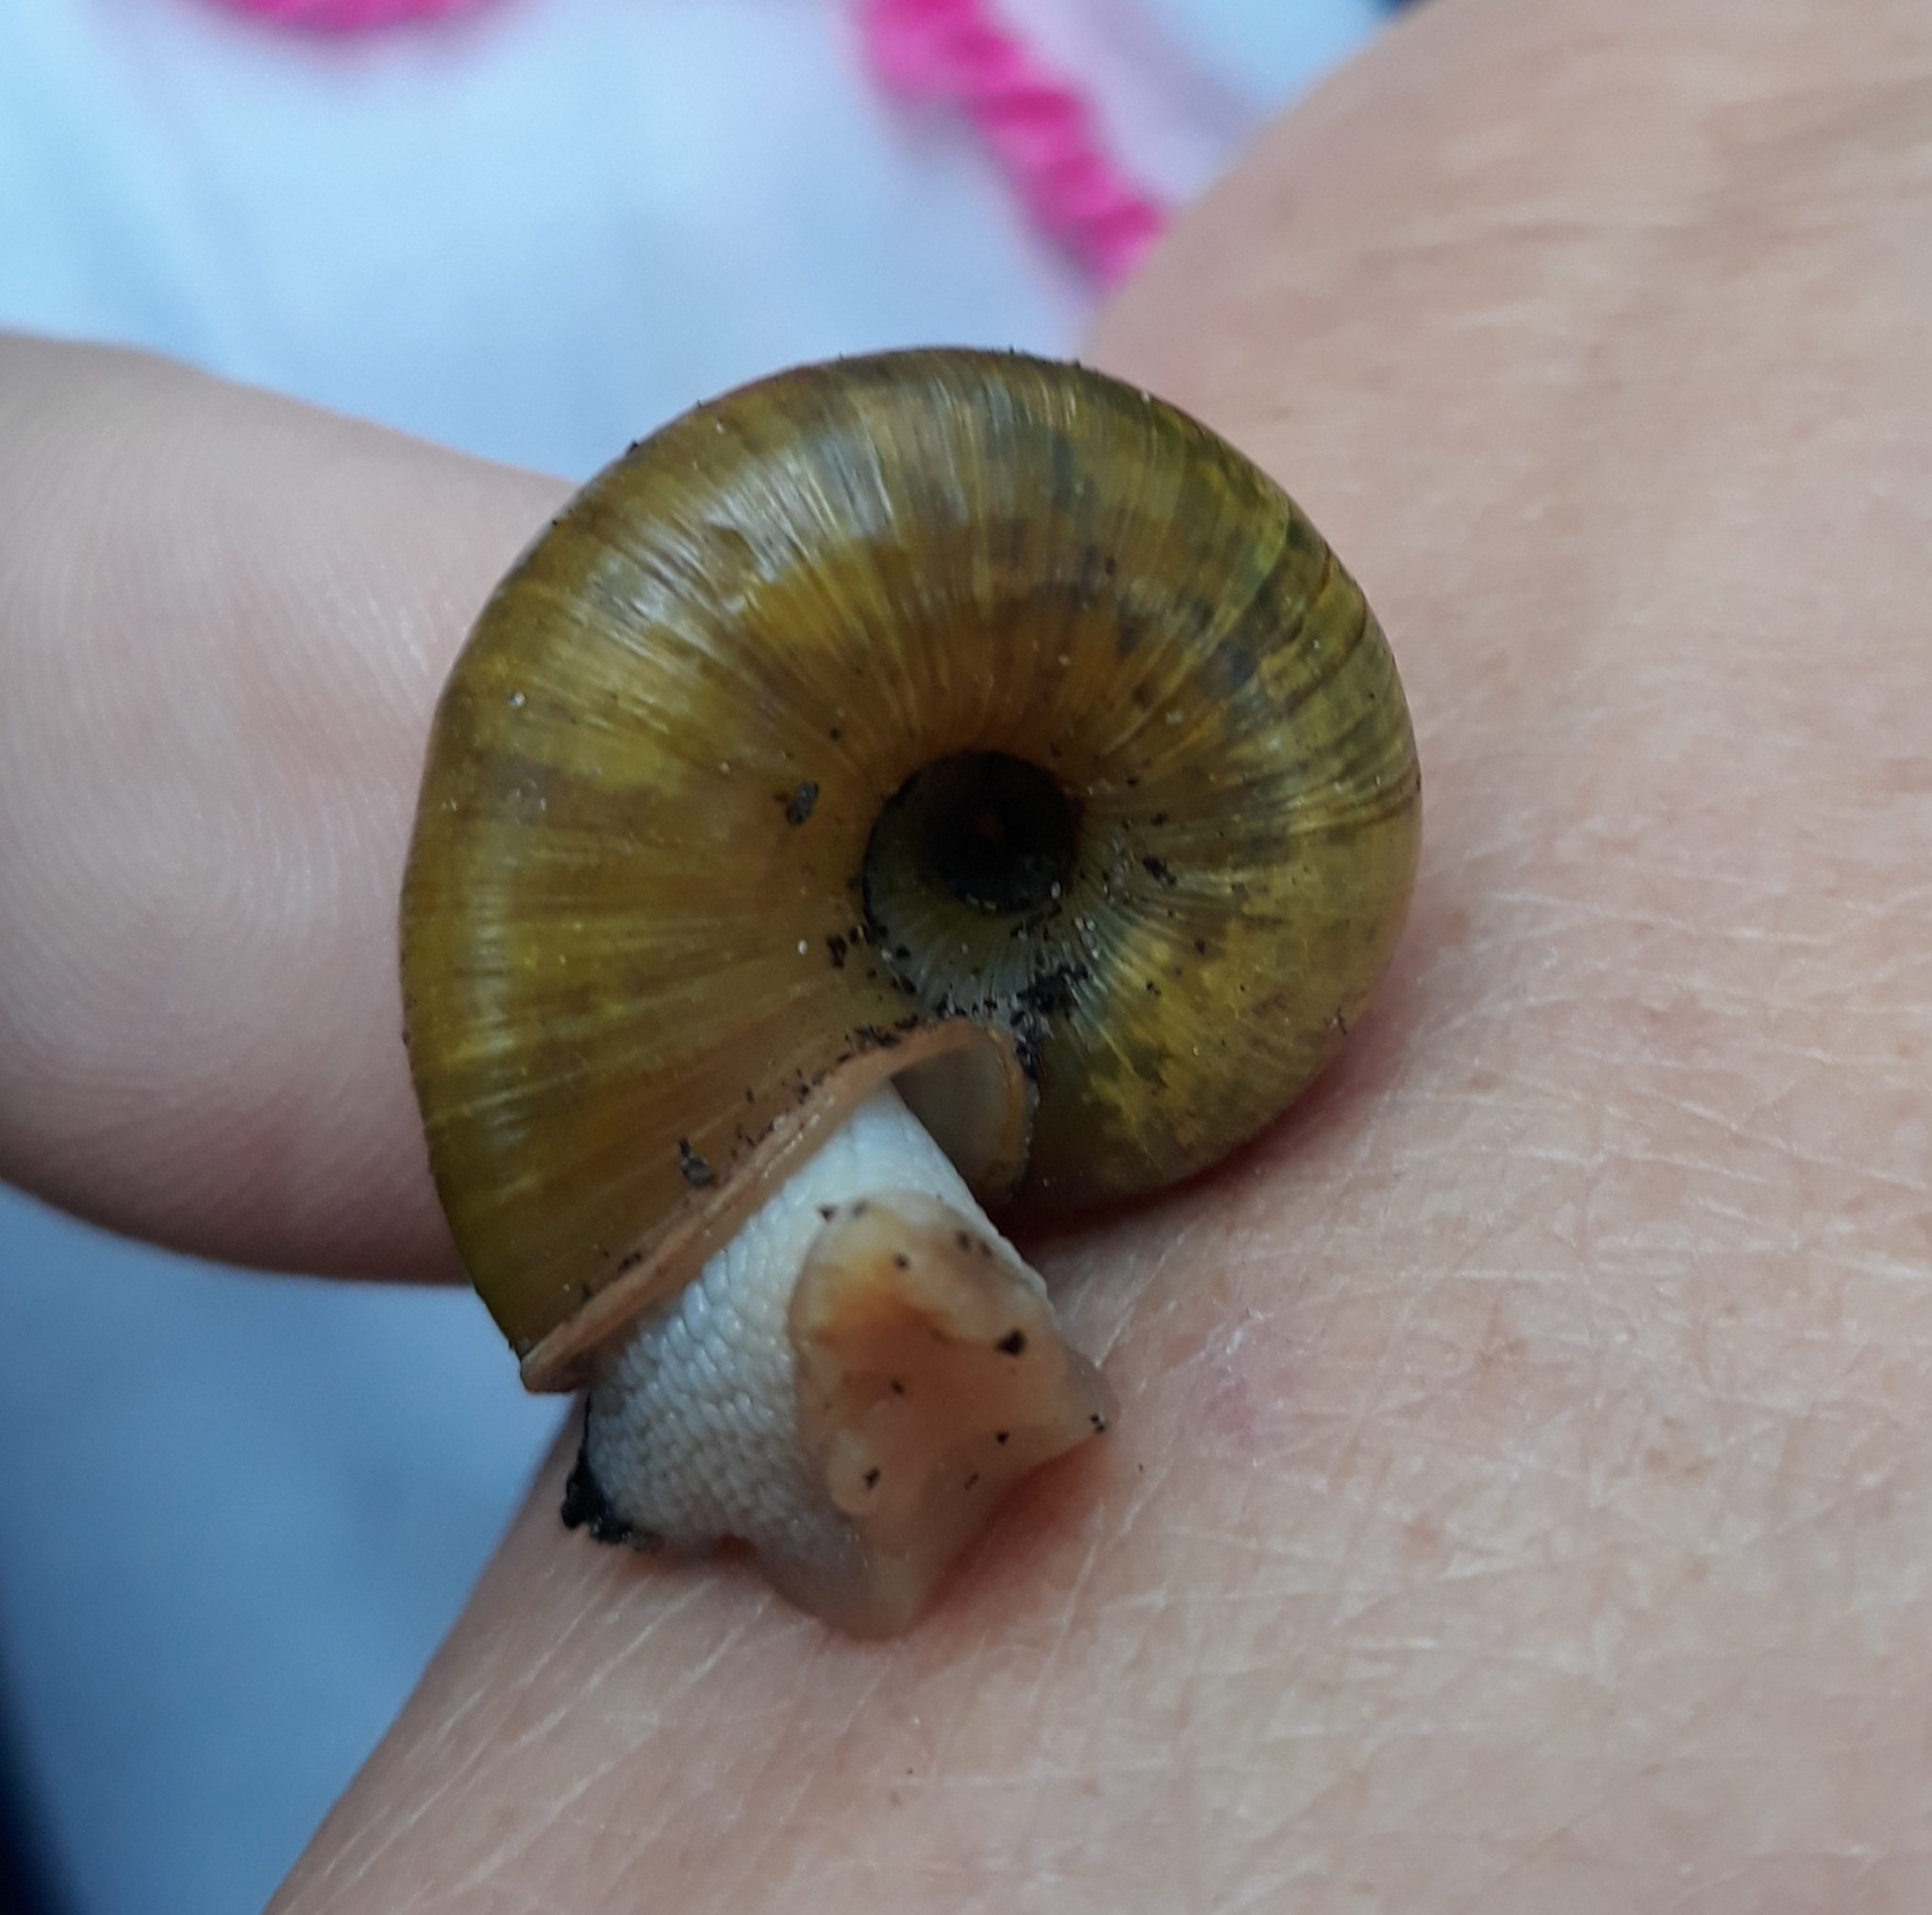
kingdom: Animalia
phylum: Mollusca
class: Gastropoda
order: Stylommatophora
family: Haplotrematidae
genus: Haplotrema
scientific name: Haplotrema vancouverense
